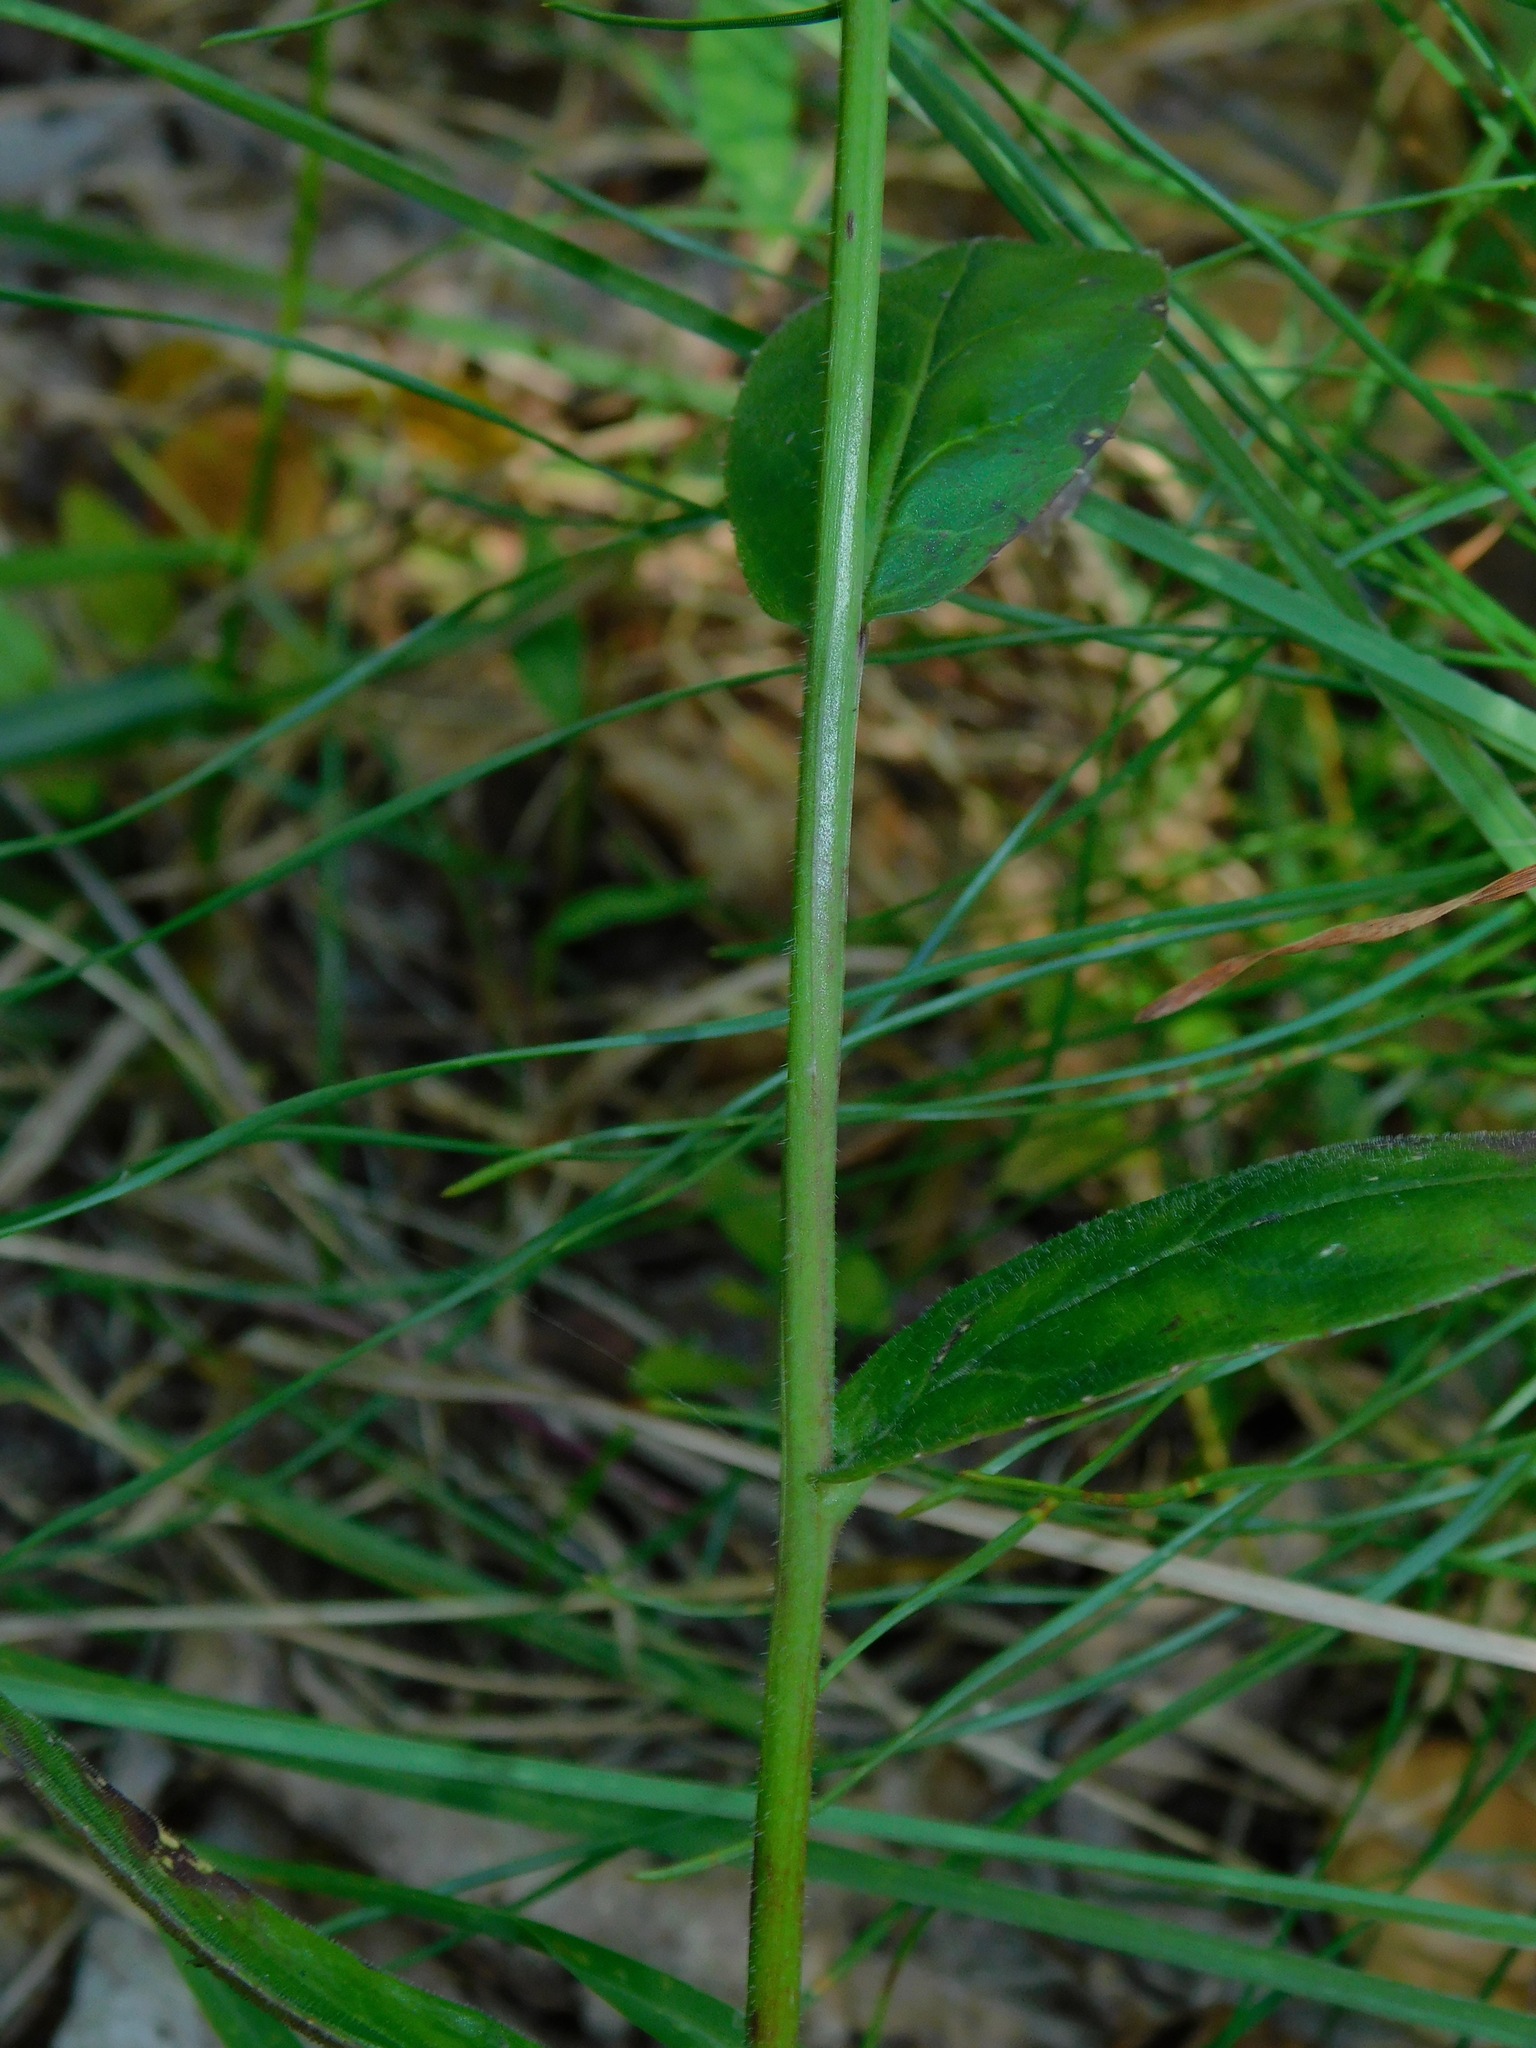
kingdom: Plantae
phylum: Tracheophyta
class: Magnoliopsida
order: Asterales
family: Campanulaceae
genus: Lobelia
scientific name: Lobelia puberula
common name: Purple dewdrop
